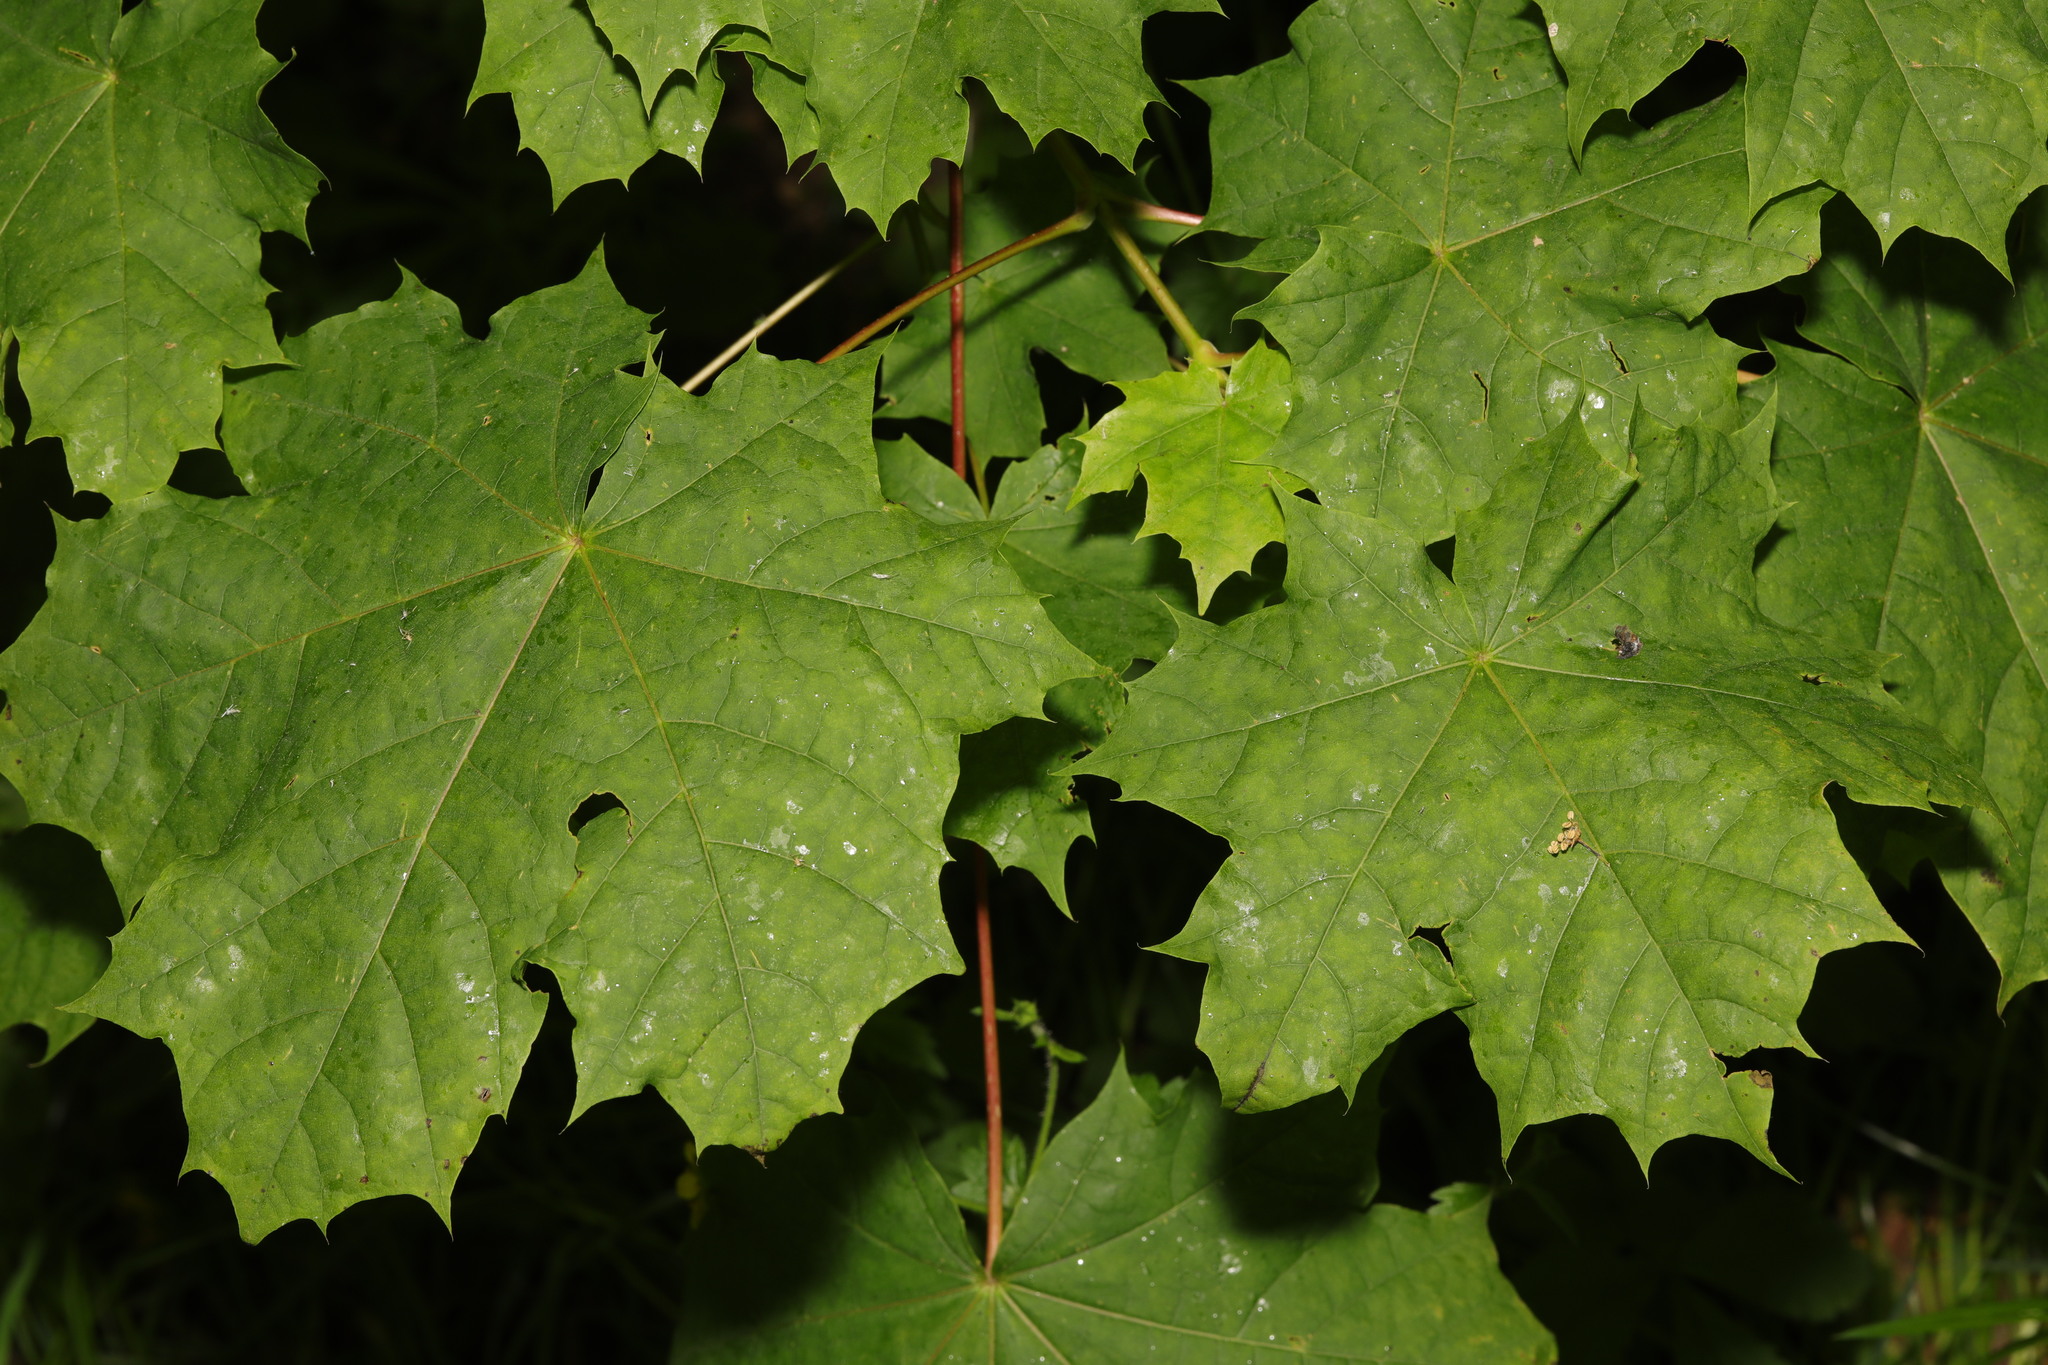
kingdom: Plantae
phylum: Tracheophyta
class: Magnoliopsida
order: Sapindales
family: Sapindaceae
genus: Acer
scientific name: Acer platanoides
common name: Norway maple
